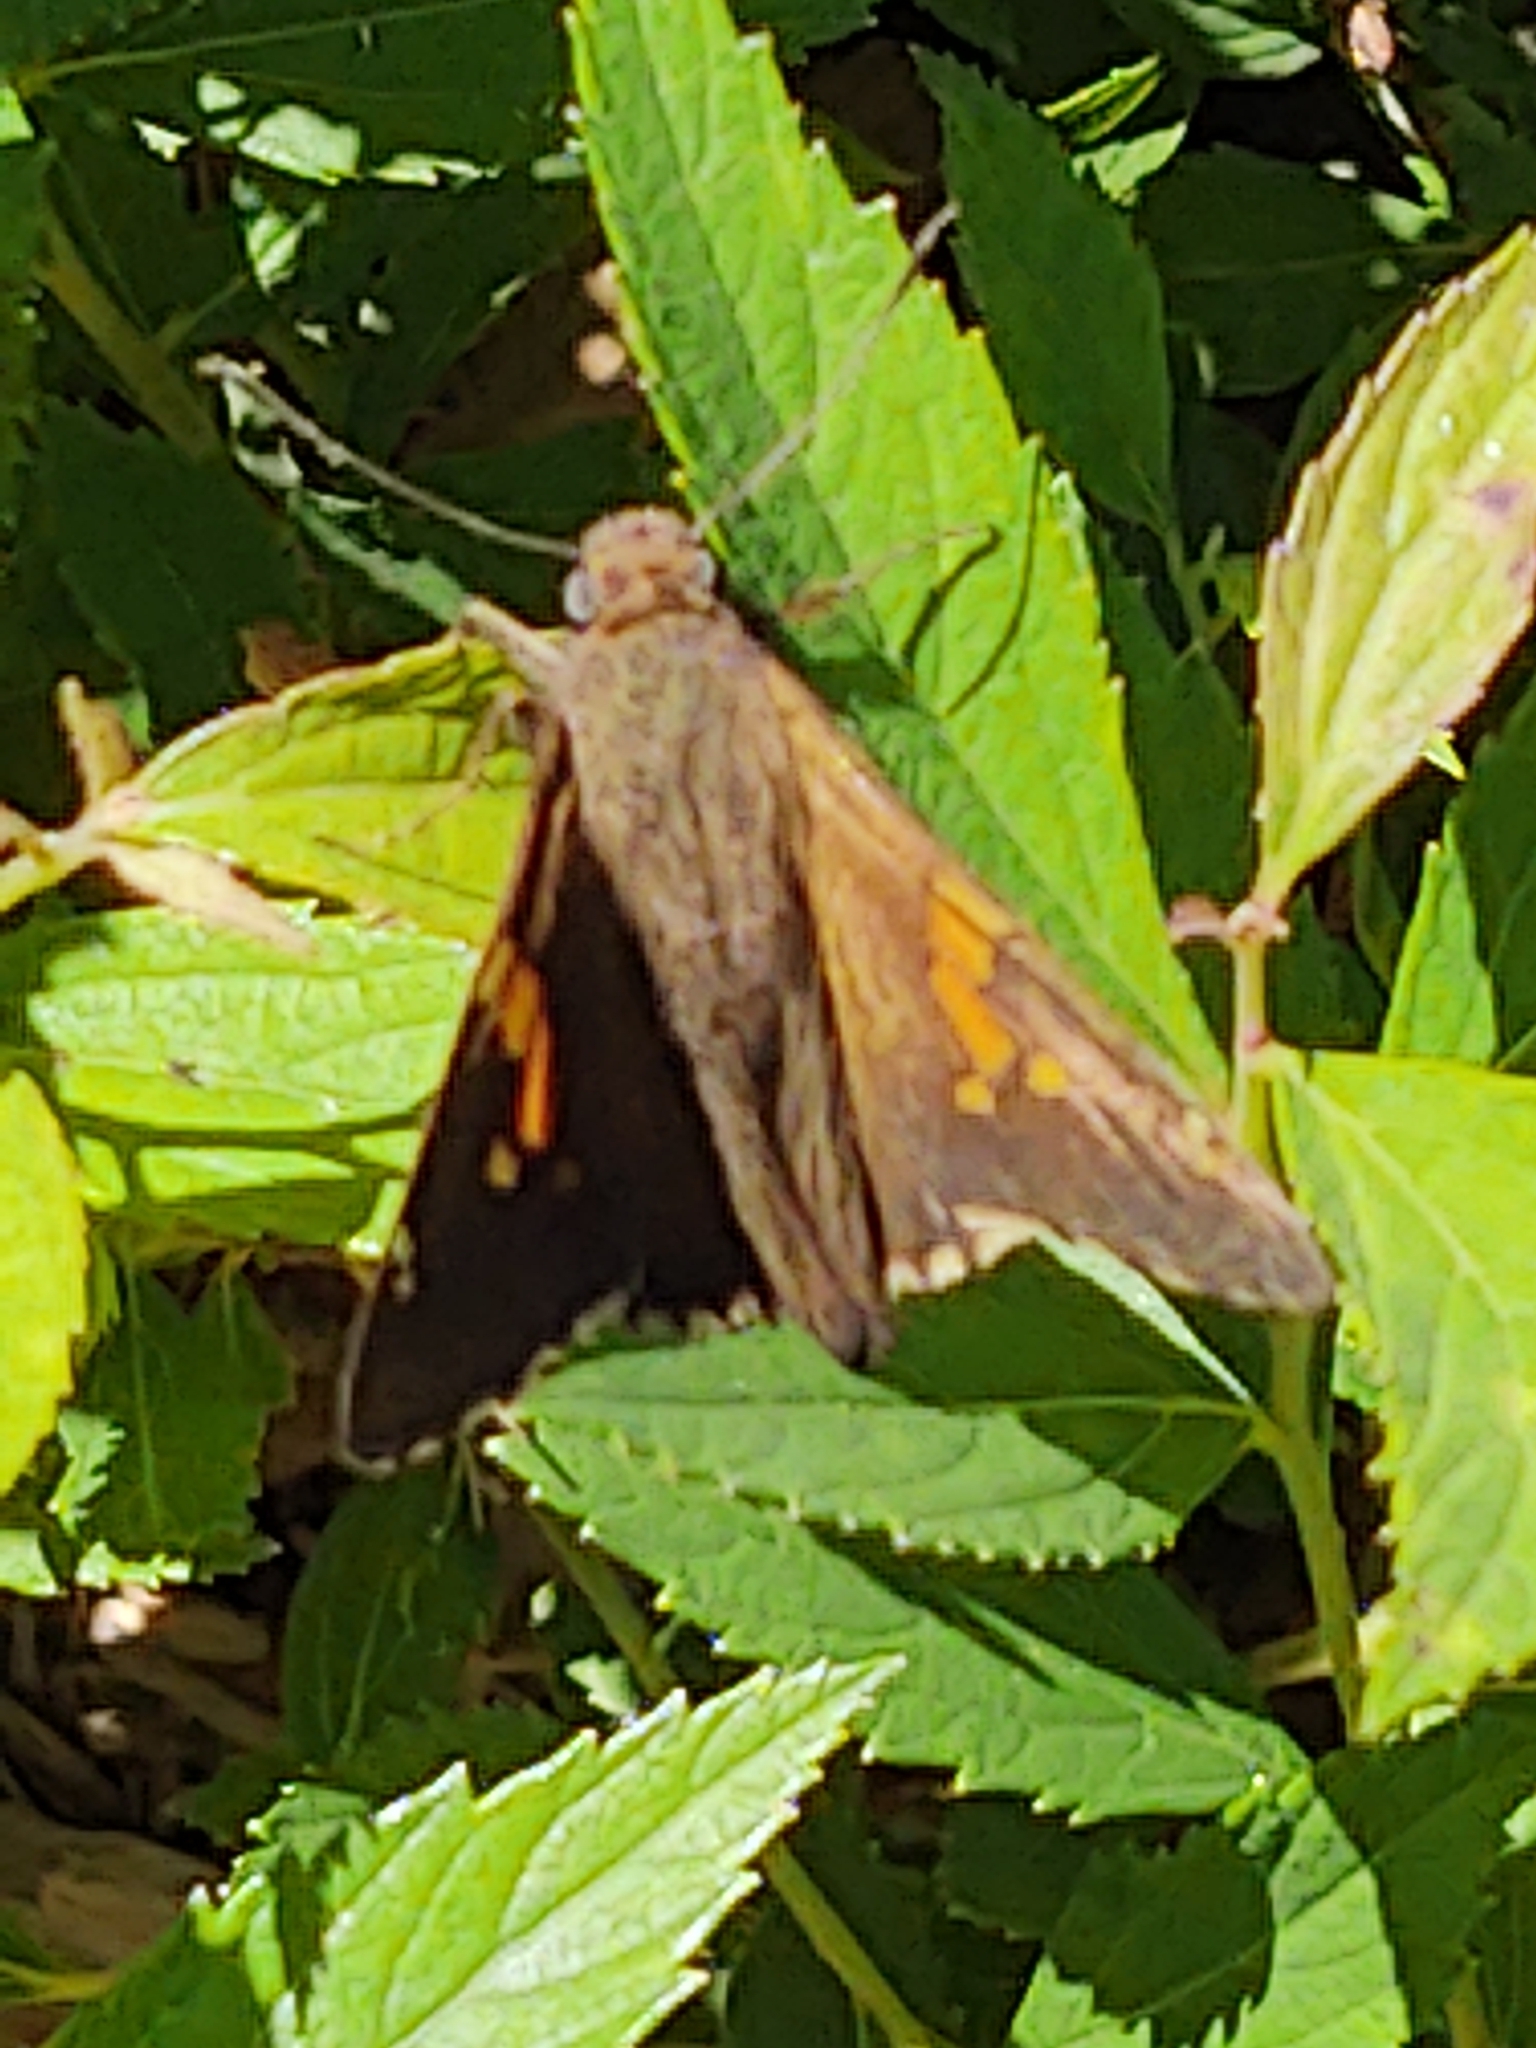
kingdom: Animalia
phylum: Arthropoda
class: Insecta
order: Lepidoptera
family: Hesperiidae
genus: Epargyreus
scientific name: Epargyreus clarus
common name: Silver-spotted skipper
